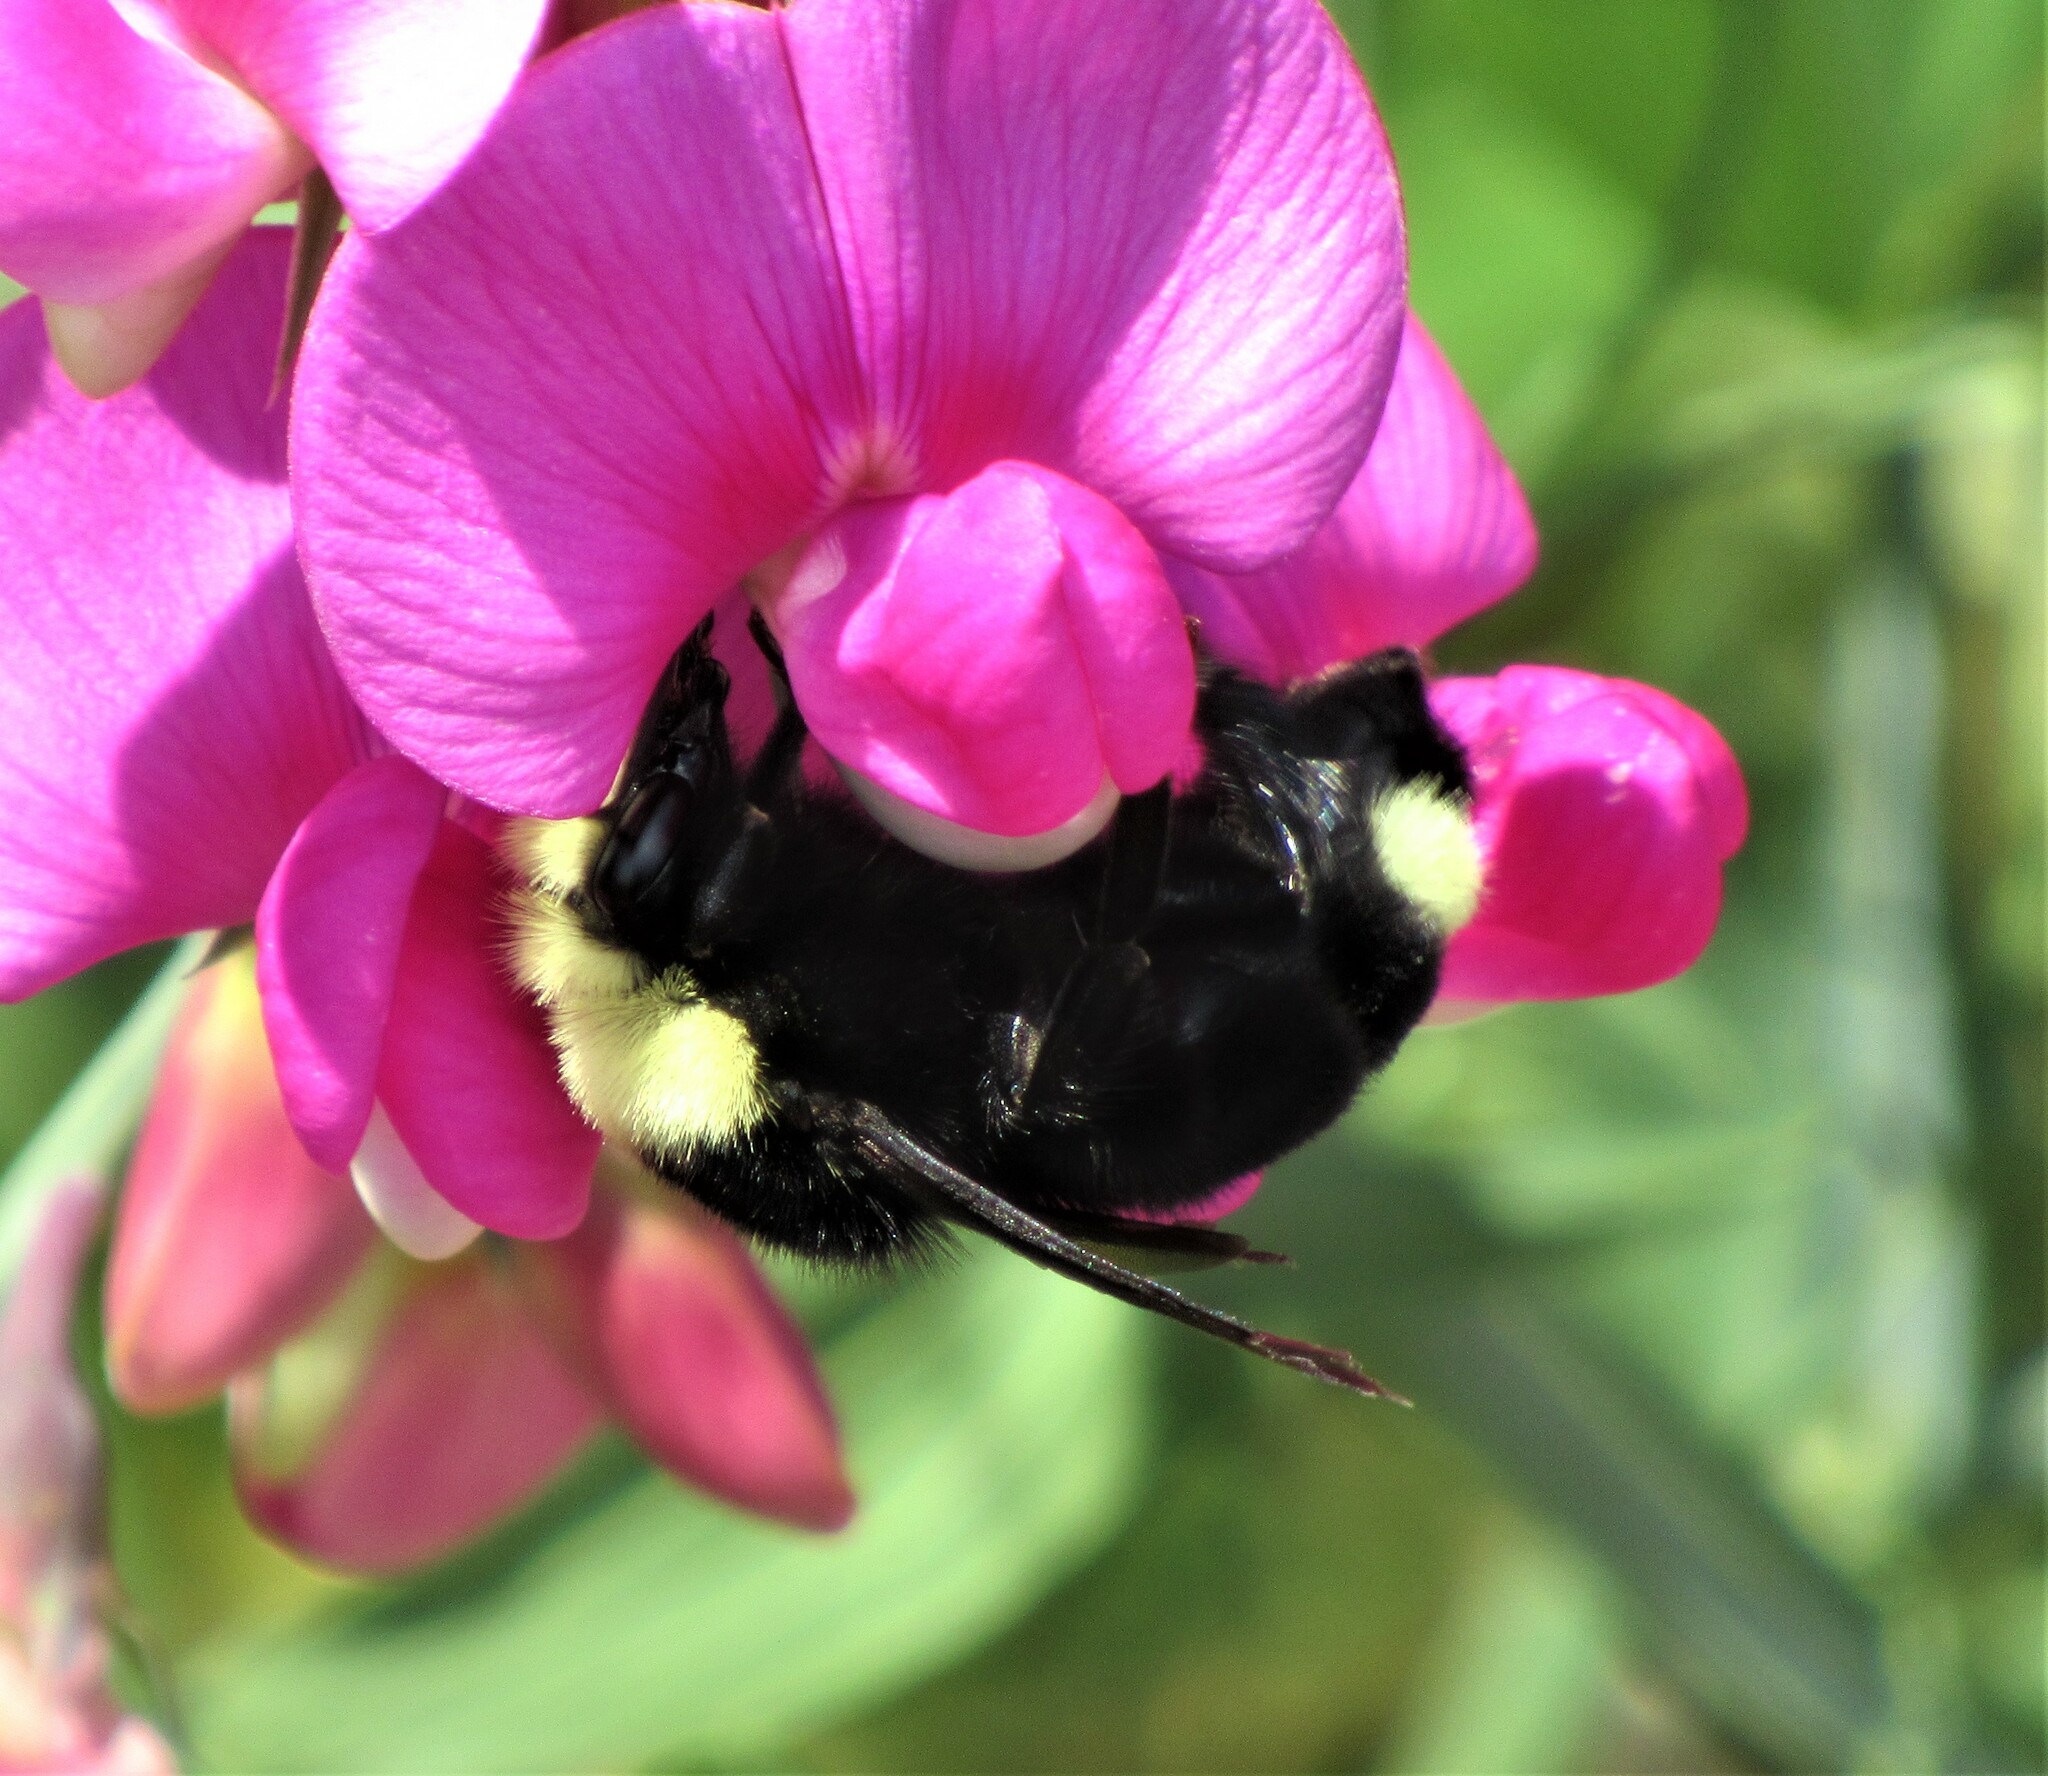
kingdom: Animalia
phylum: Arthropoda
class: Insecta
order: Hymenoptera
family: Apidae
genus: Bombus
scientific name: Bombus vosnesenskii
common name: Vosnesensky bumble bee
